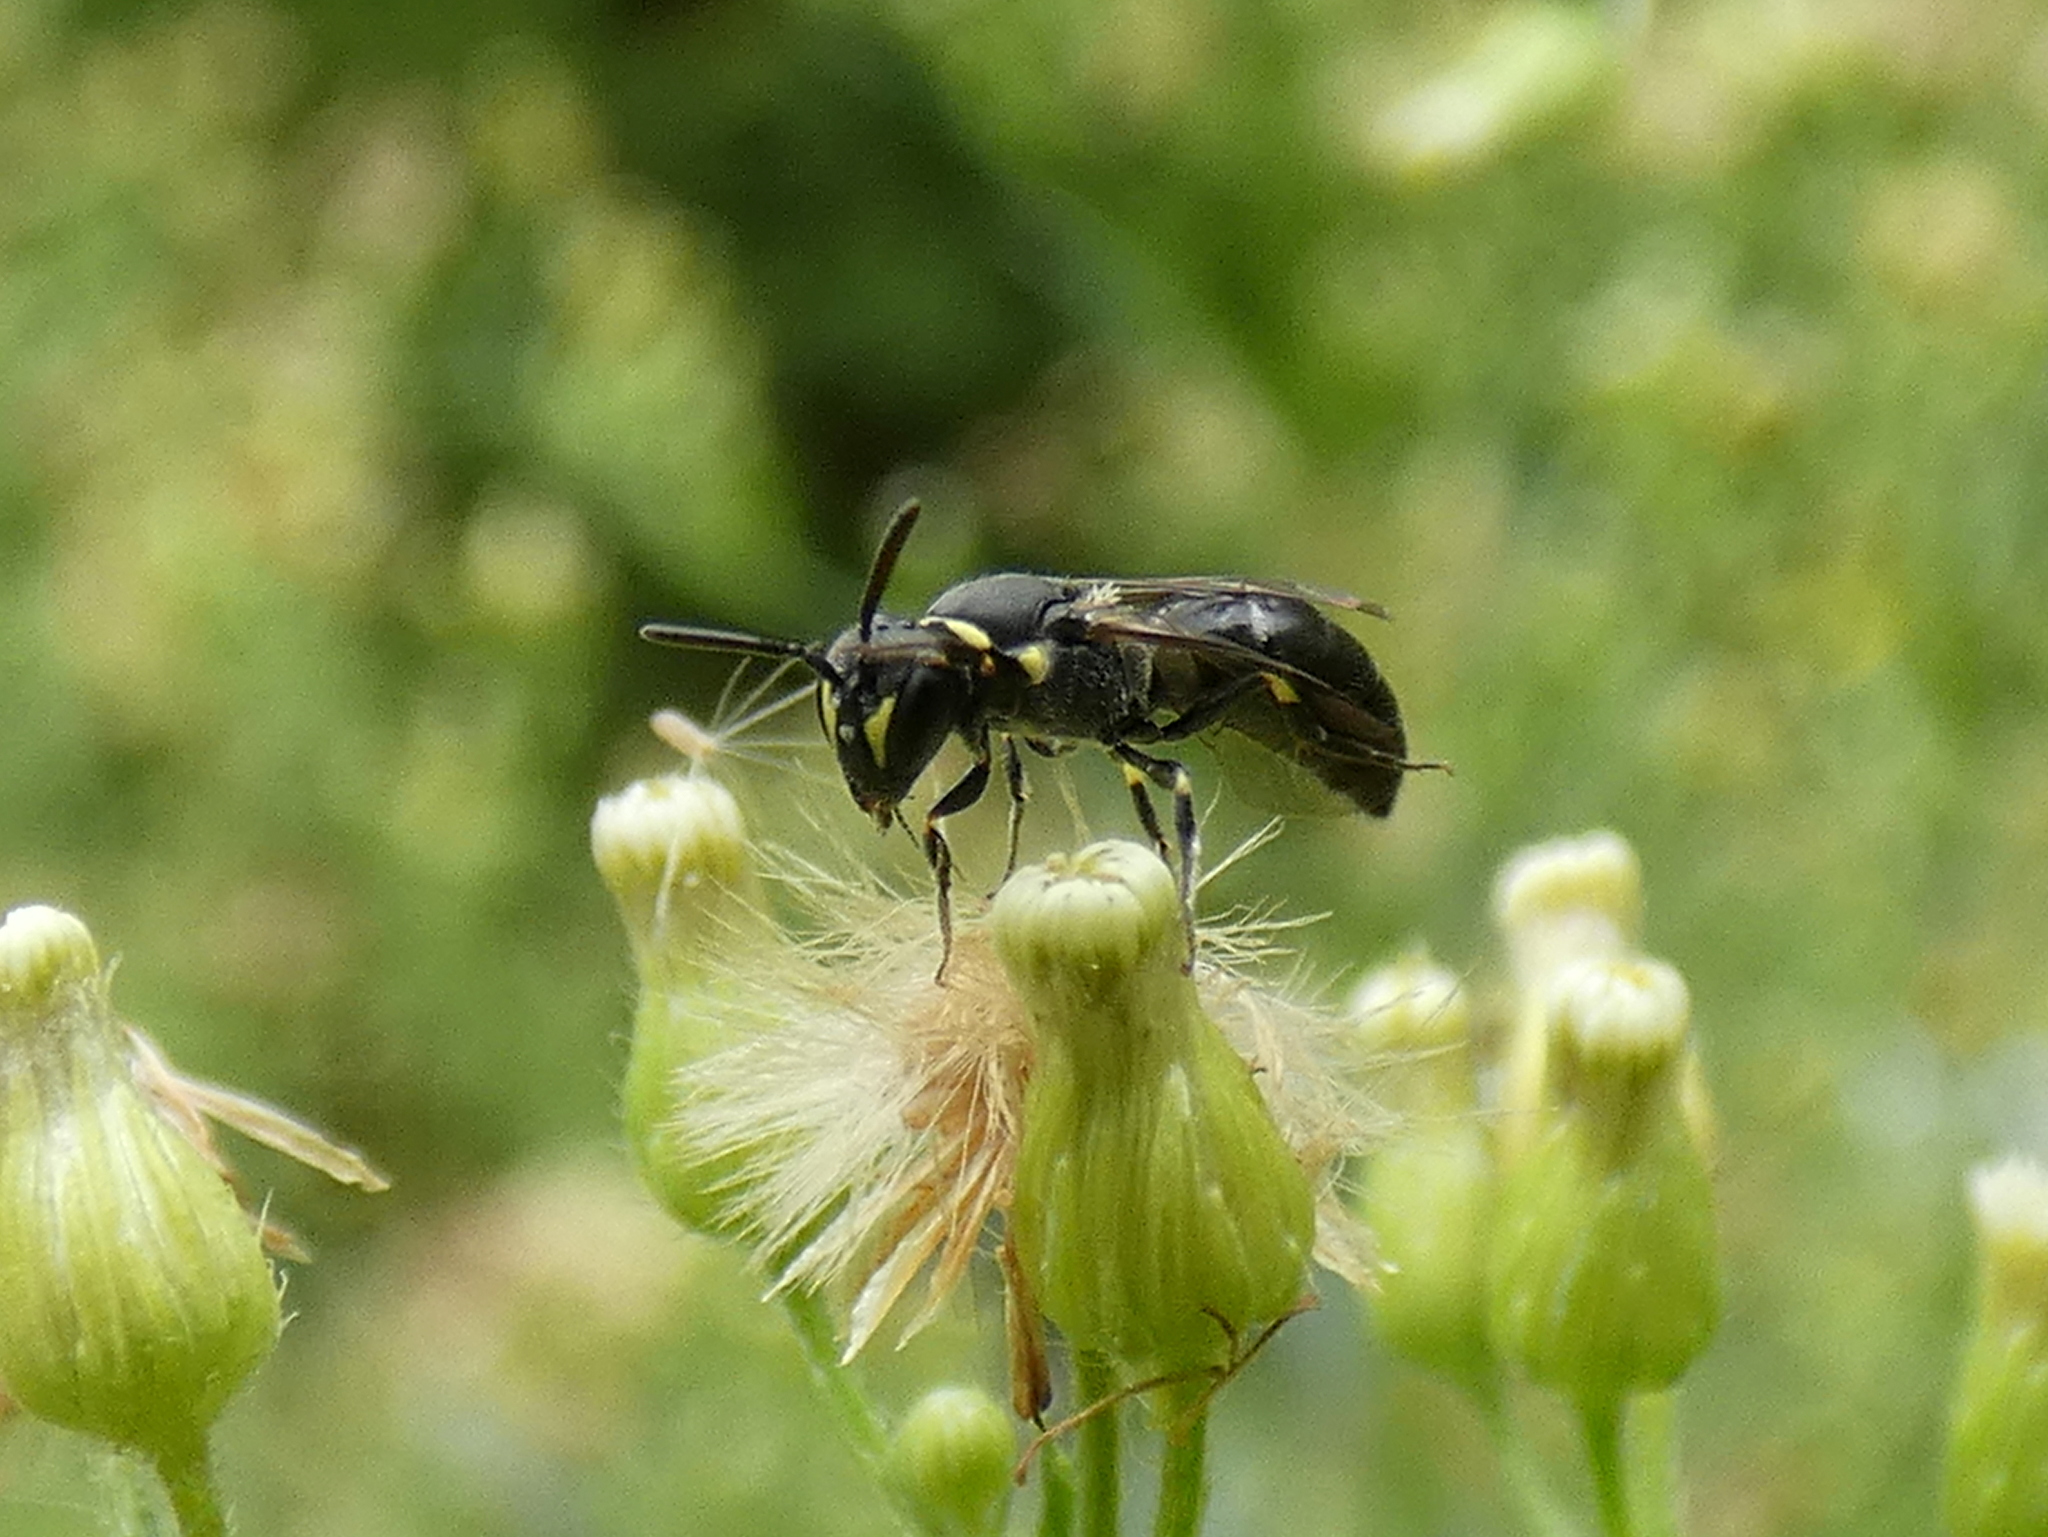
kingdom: Animalia
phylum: Arthropoda
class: Insecta
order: Hymenoptera
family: Colletidae
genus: Hylaeus
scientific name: Hylaeus modestus
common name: Yellow-faced bee
